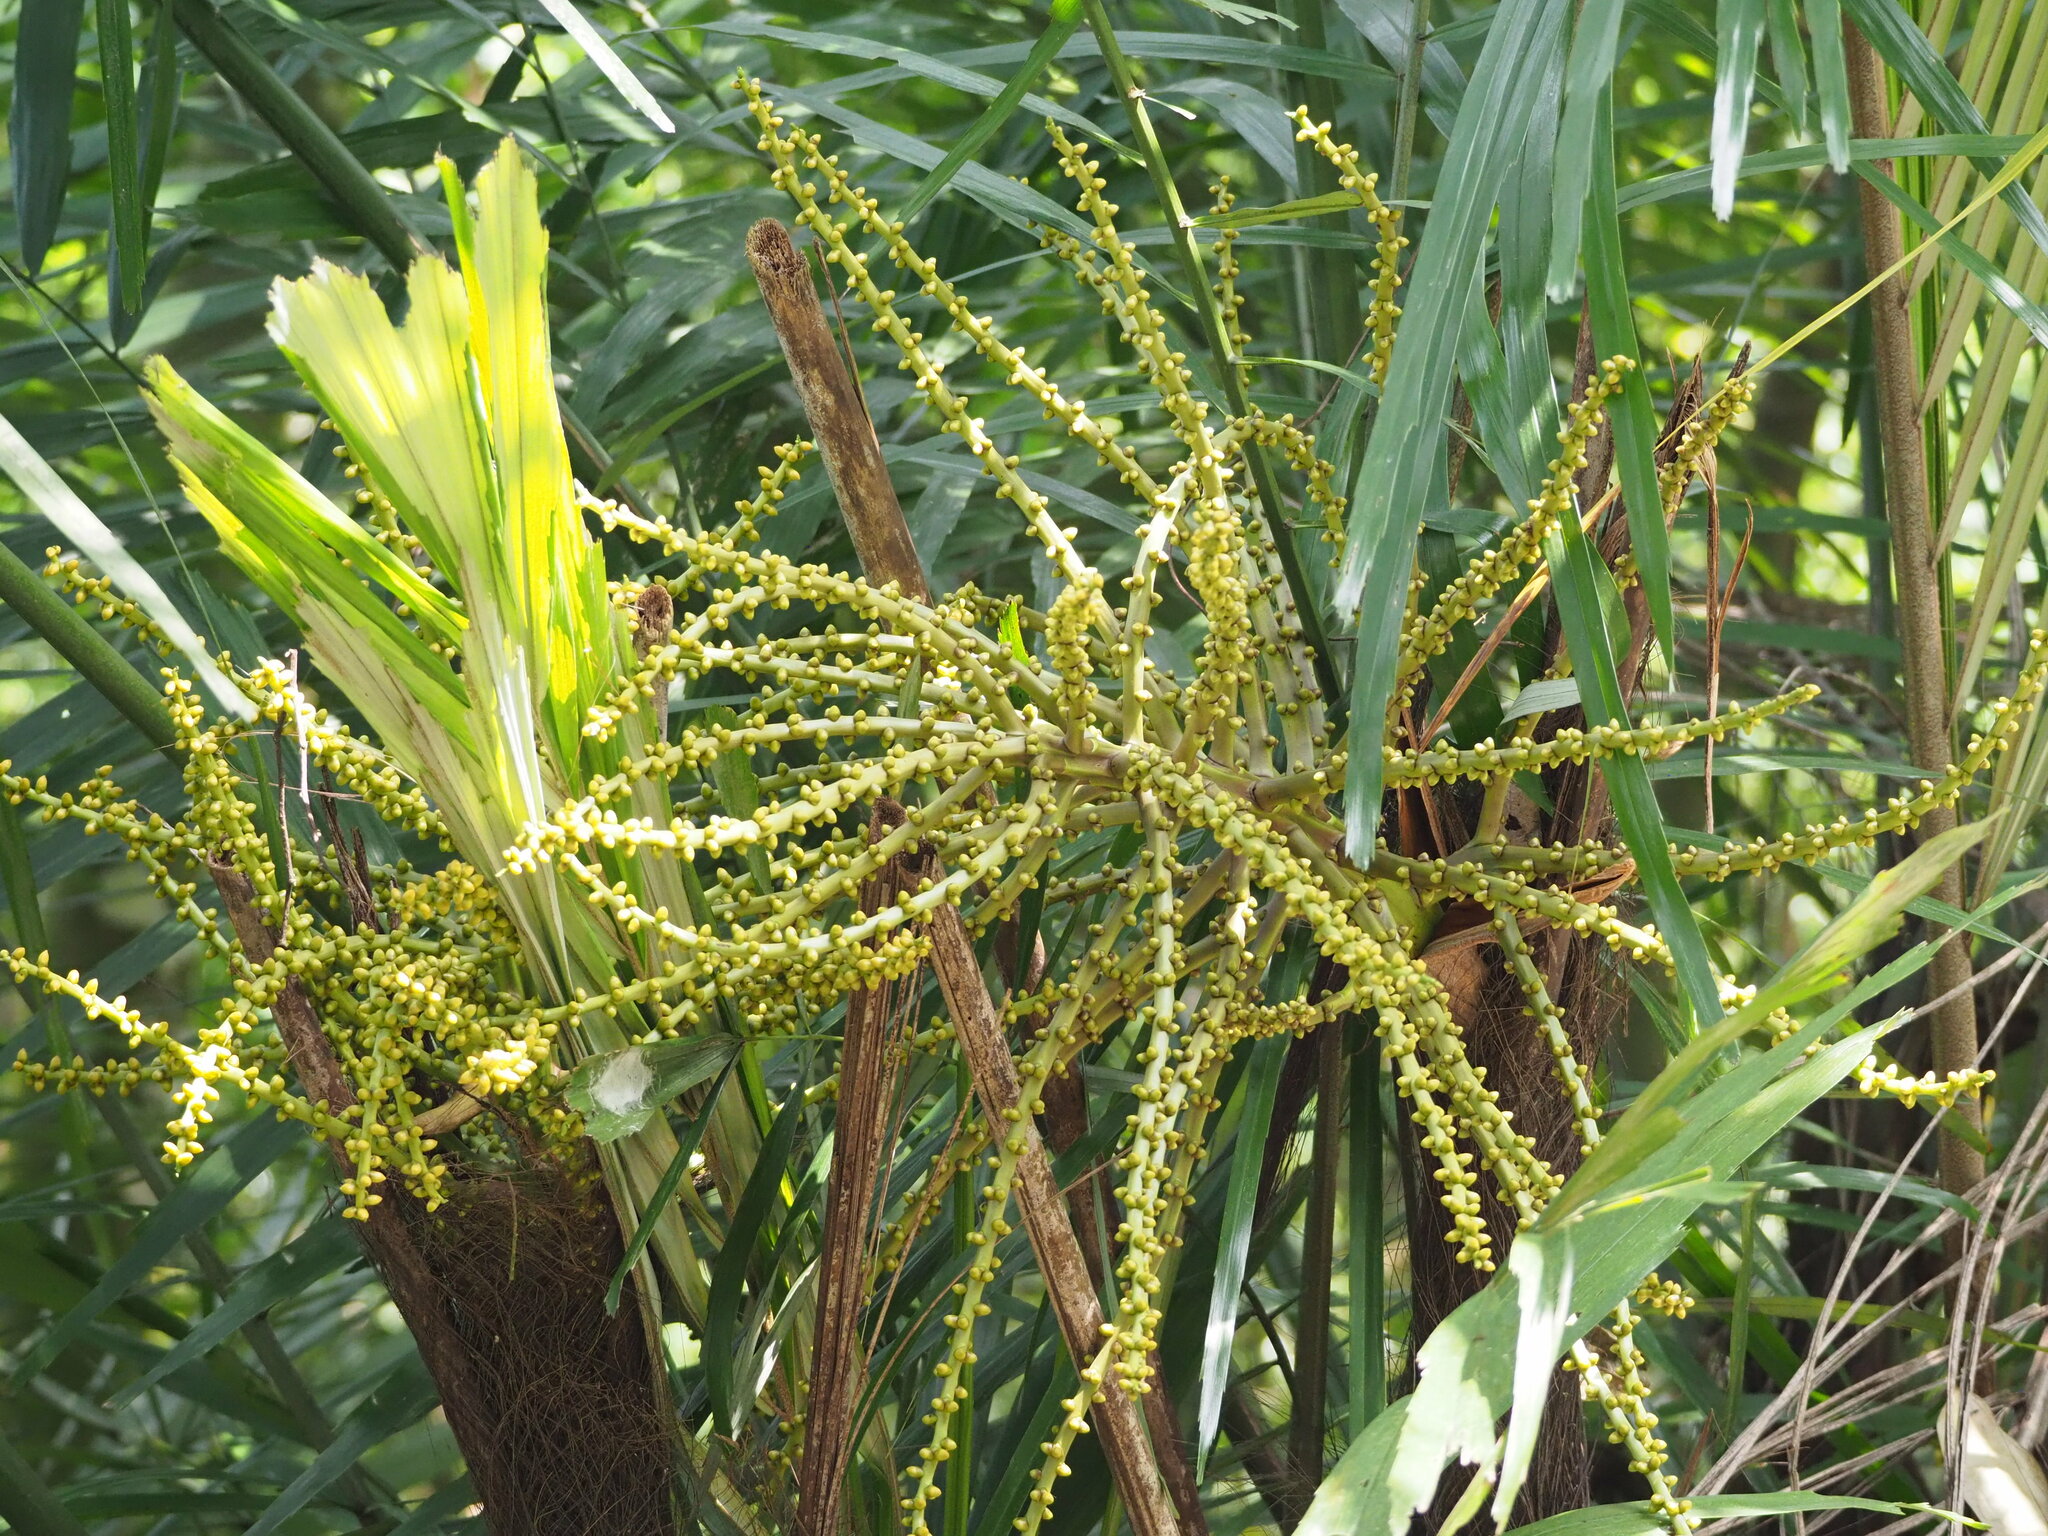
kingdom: Plantae
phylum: Tracheophyta
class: Liliopsida
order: Arecales
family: Arecaceae
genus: Arenga
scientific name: Arenga engleri
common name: Formosan sugar palm
